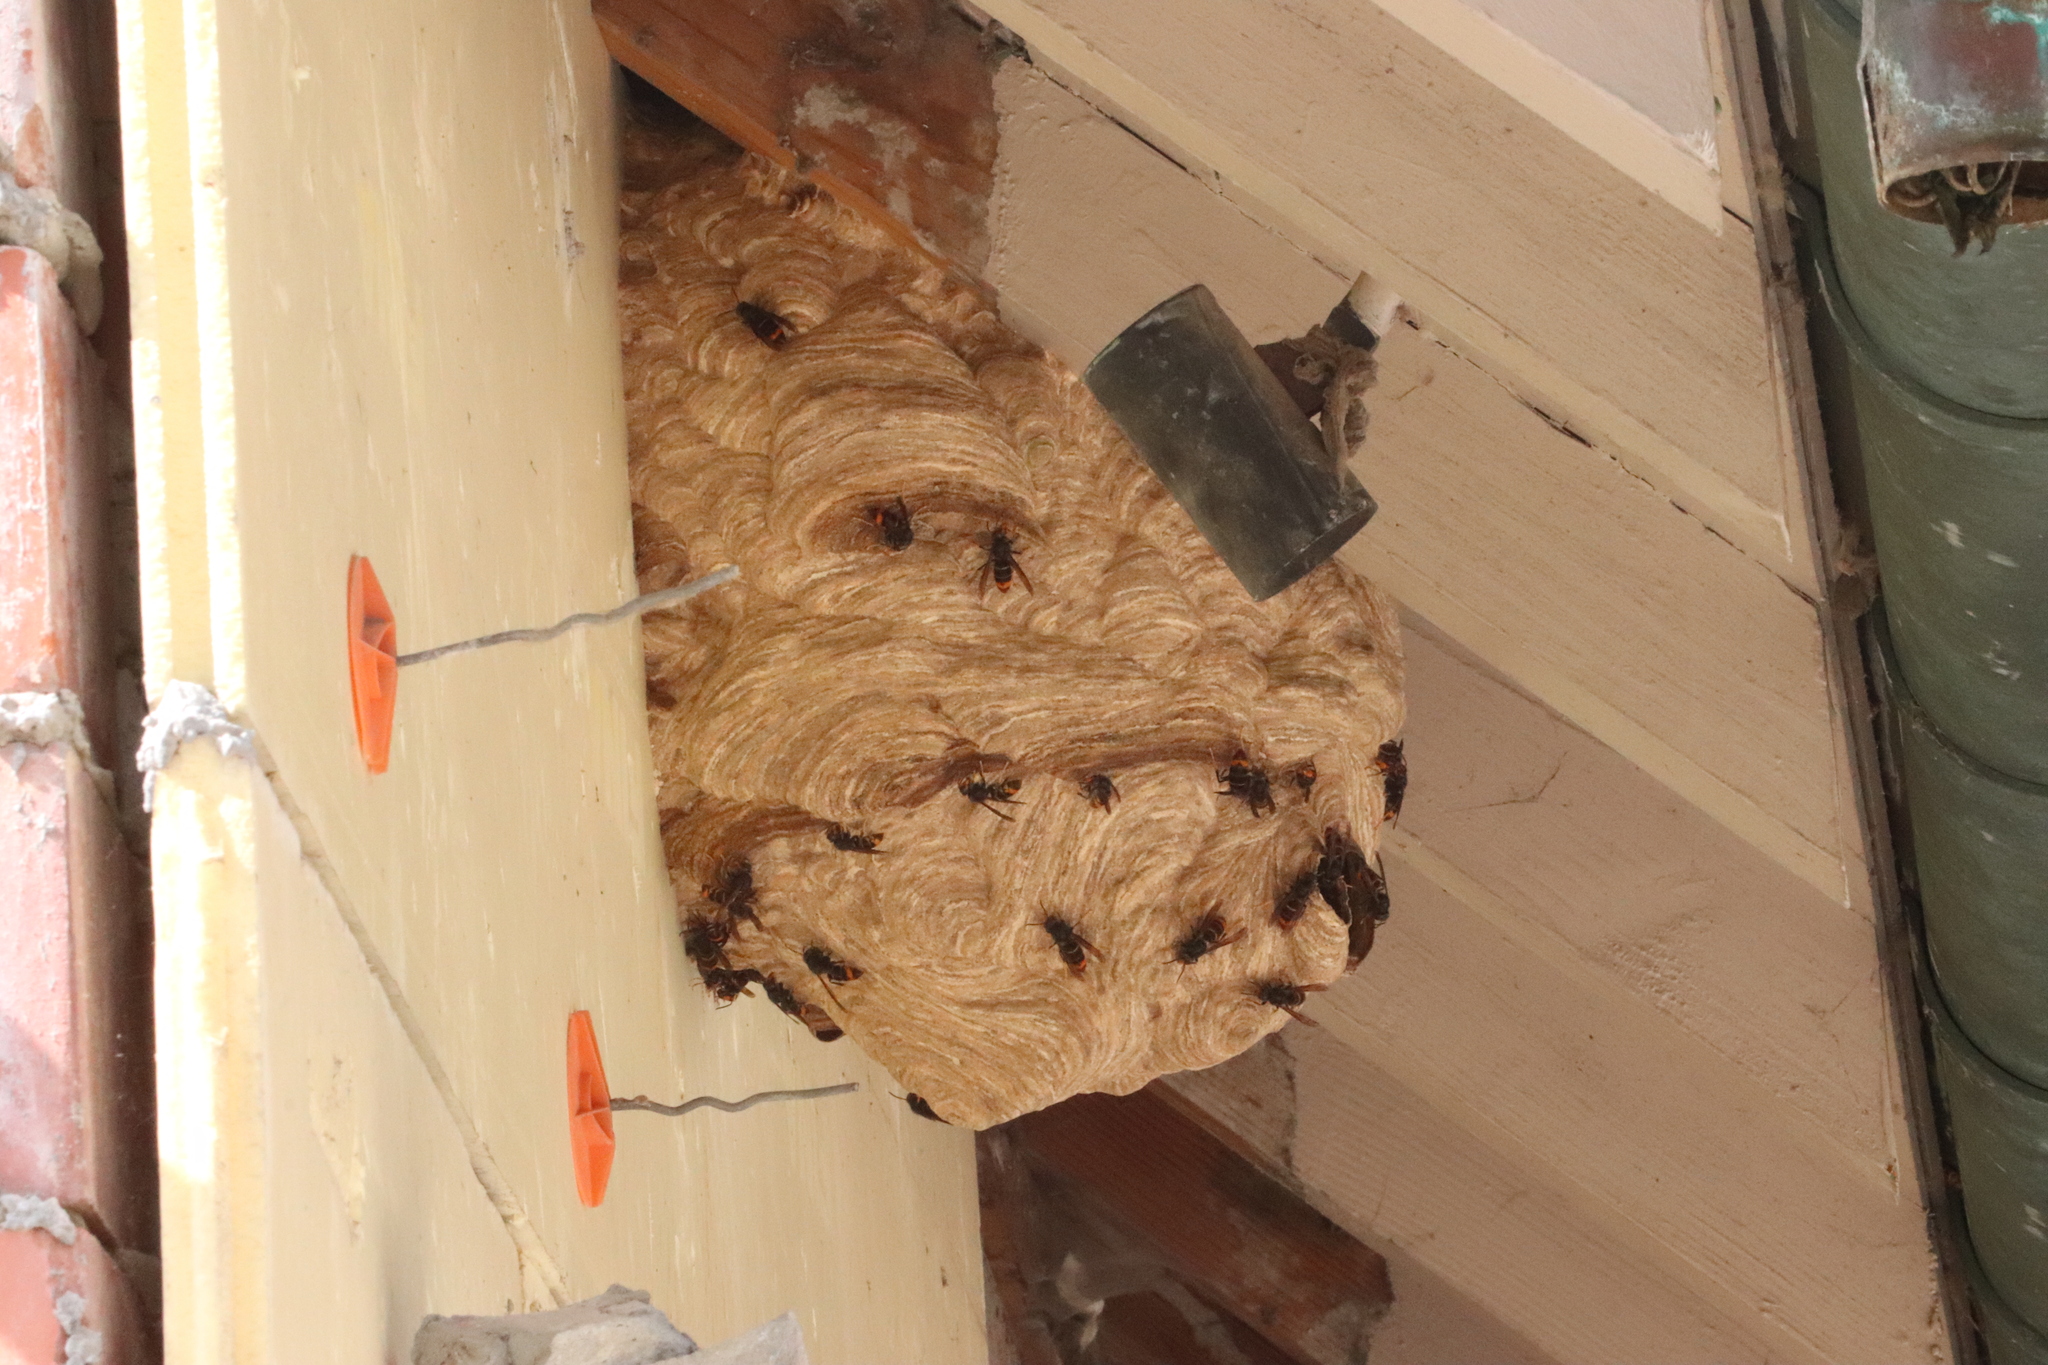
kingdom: Animalia
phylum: Arthropoda
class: Insecta
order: Hymenoptera
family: Vespidae
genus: Vespa
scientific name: Vespa velutina
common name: Asian hornet
